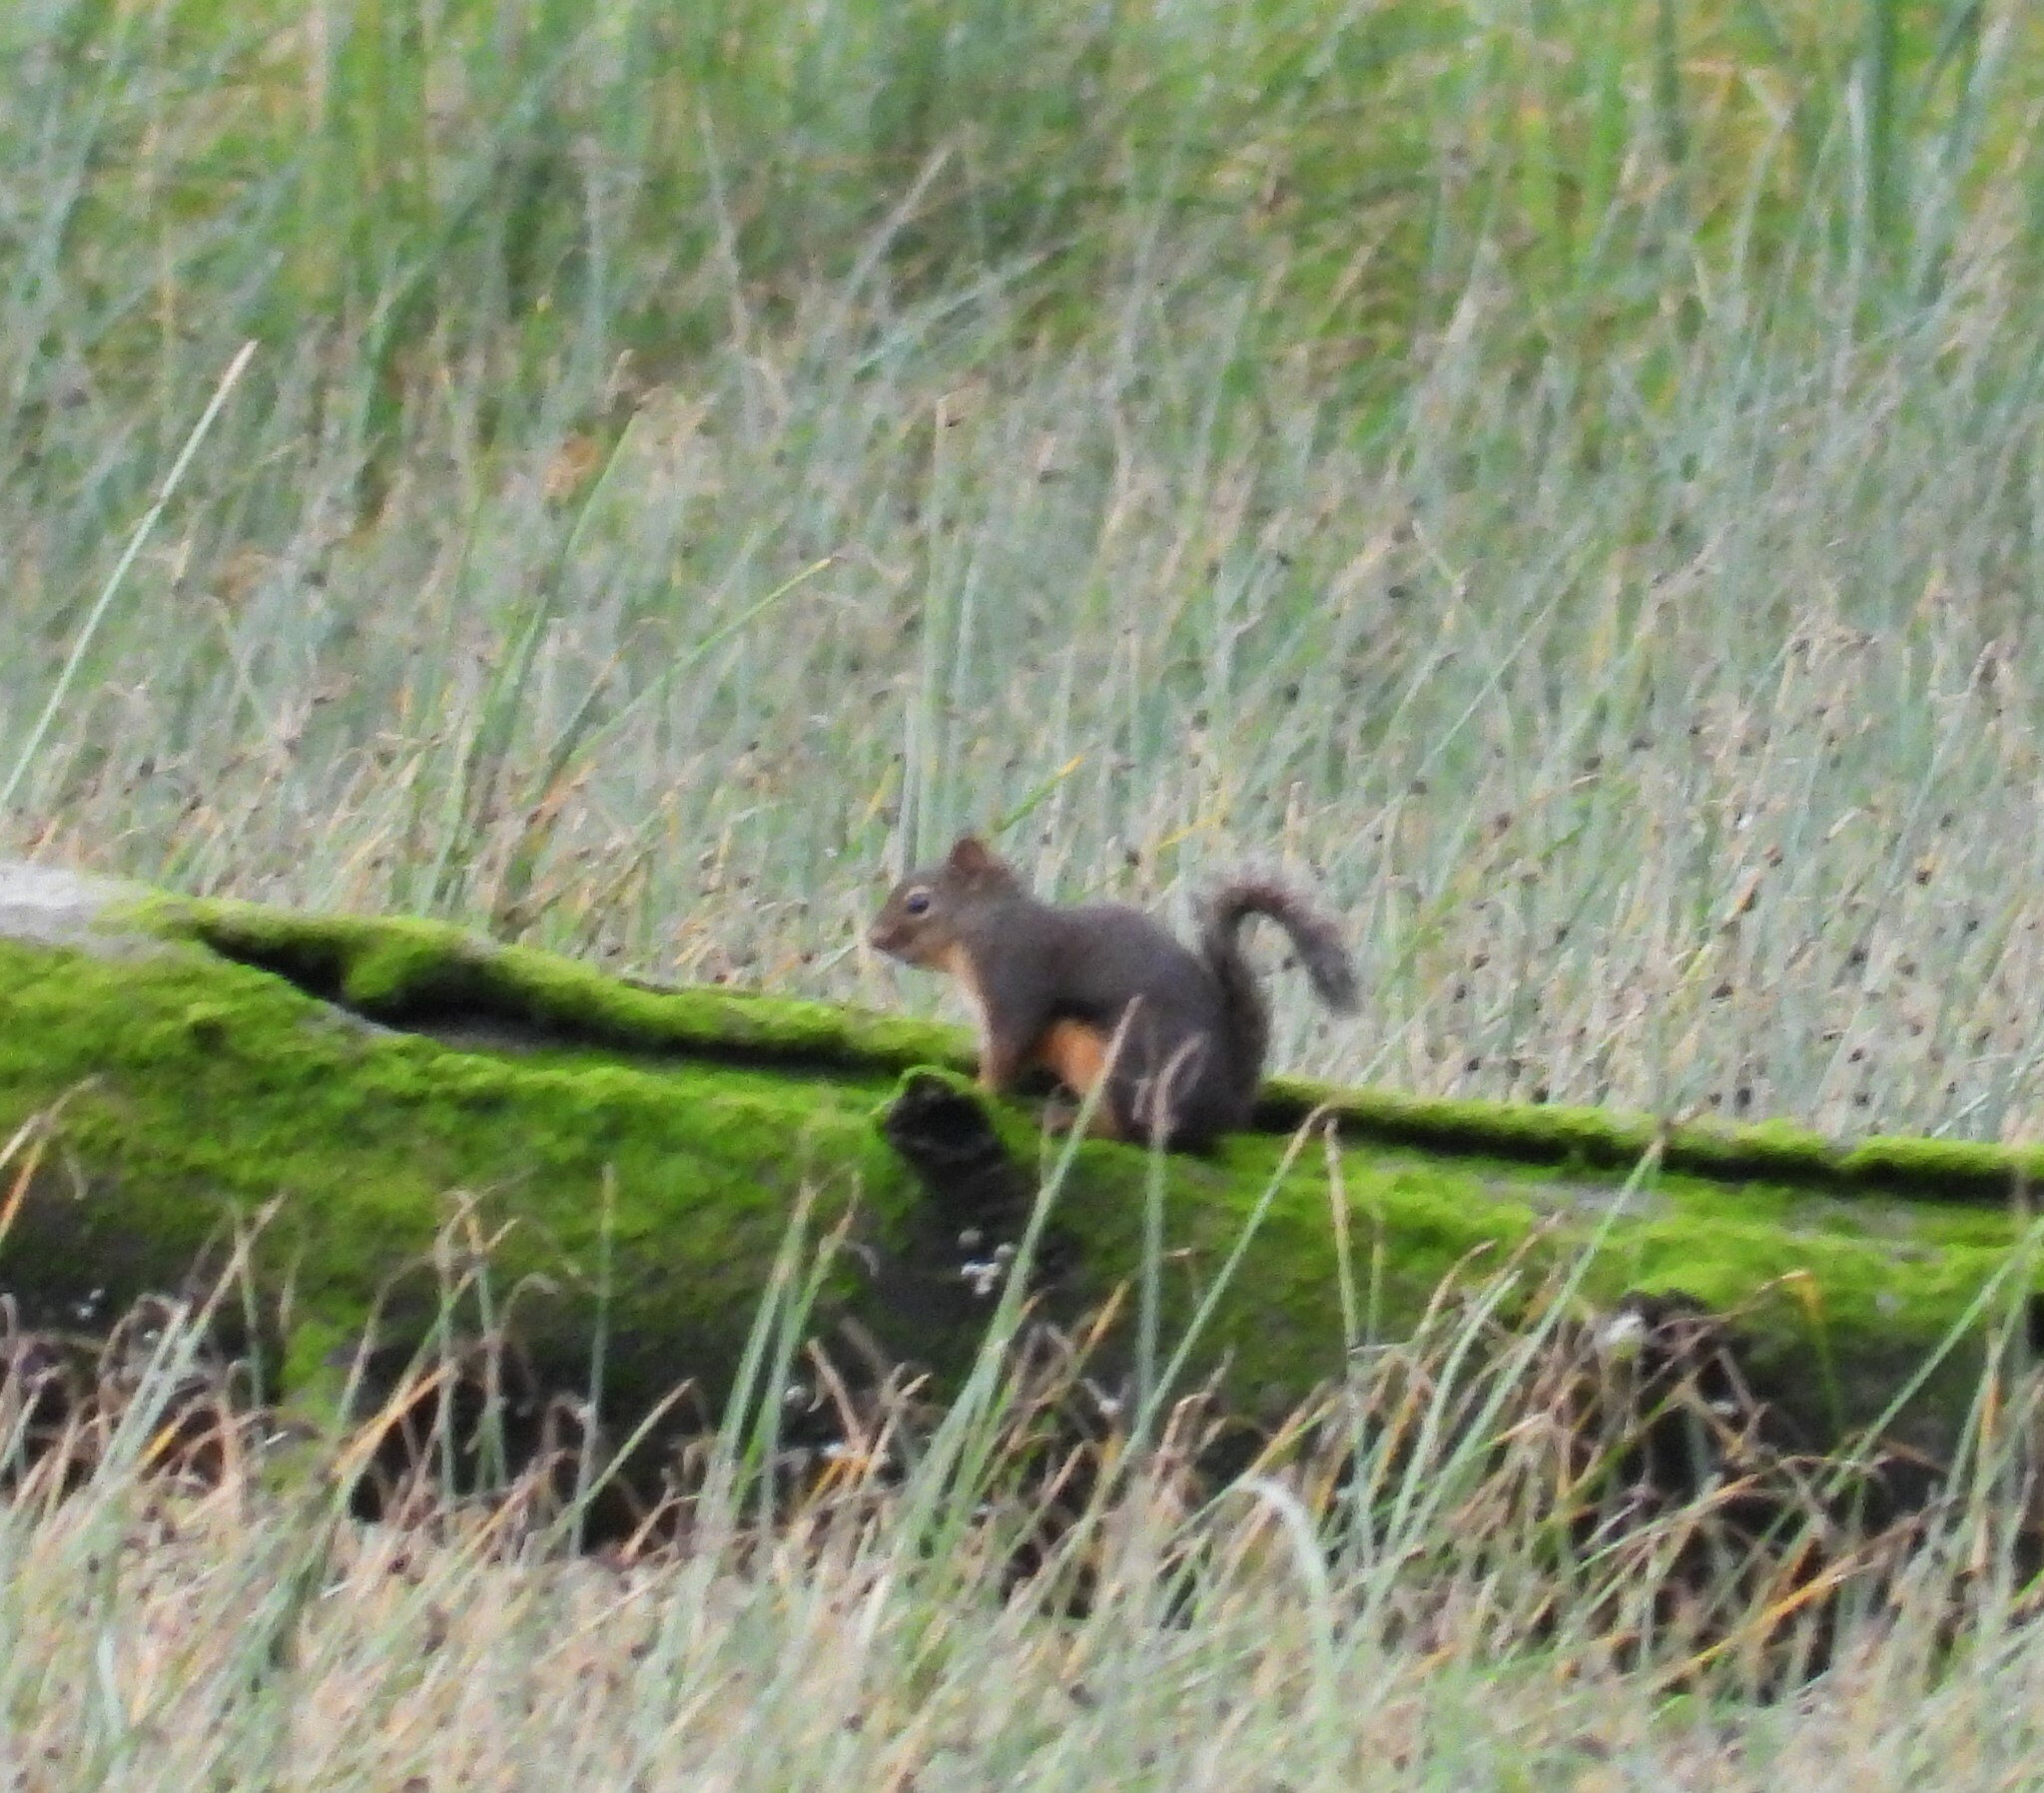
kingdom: Animalia
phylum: Chordata
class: Mammalia
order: Rodentia
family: Sciuridae
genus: Tamiasciurus
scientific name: Tamiasciurus douglasii
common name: Douglas's squirrel
